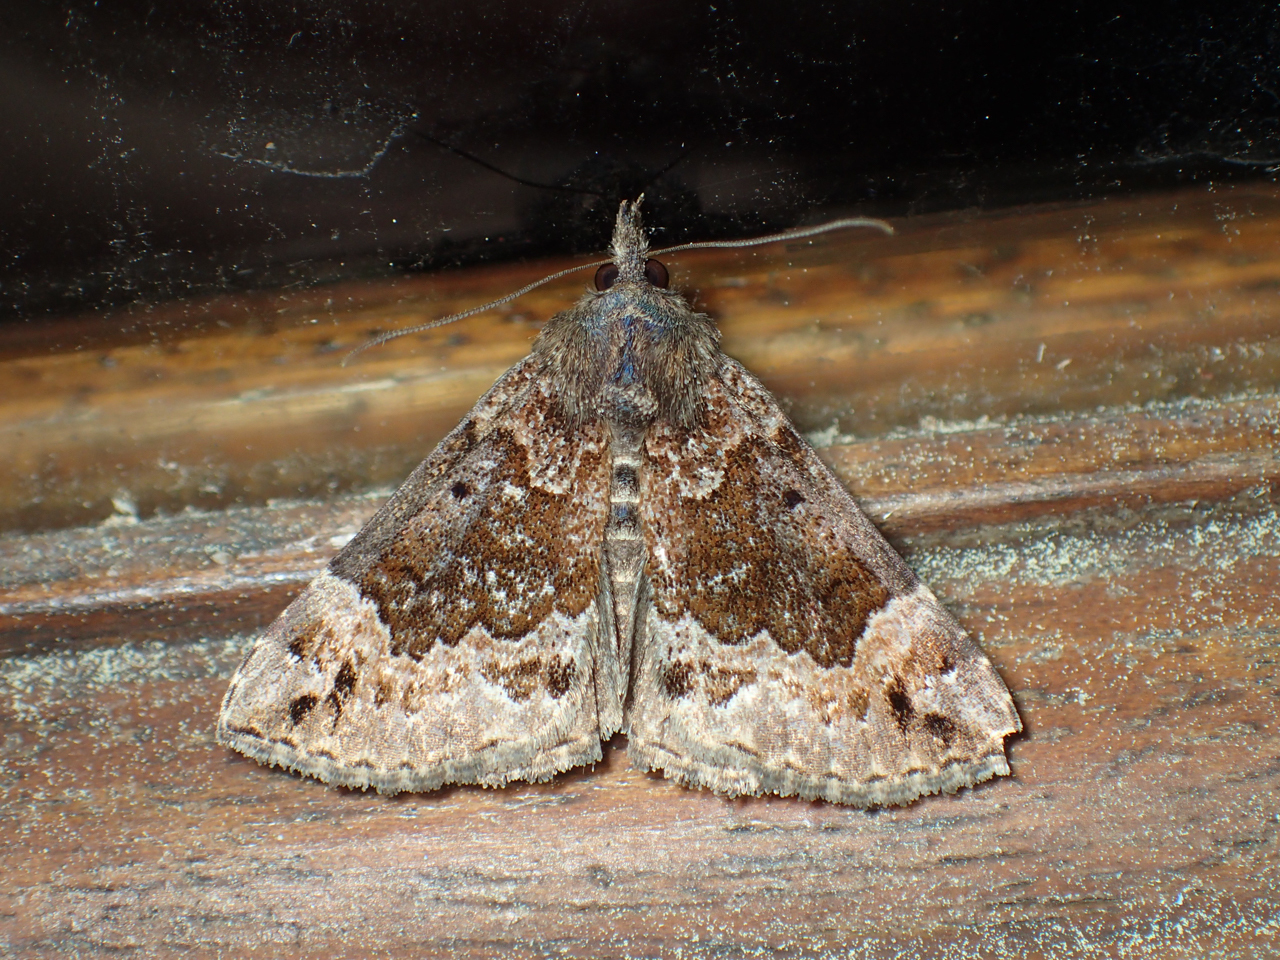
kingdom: Animalia
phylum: Arthropoda
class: Insecta
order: Lepidoptera
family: Erebidae
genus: Hypena
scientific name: Hypena palparia
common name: Mottled bomolocha moth
